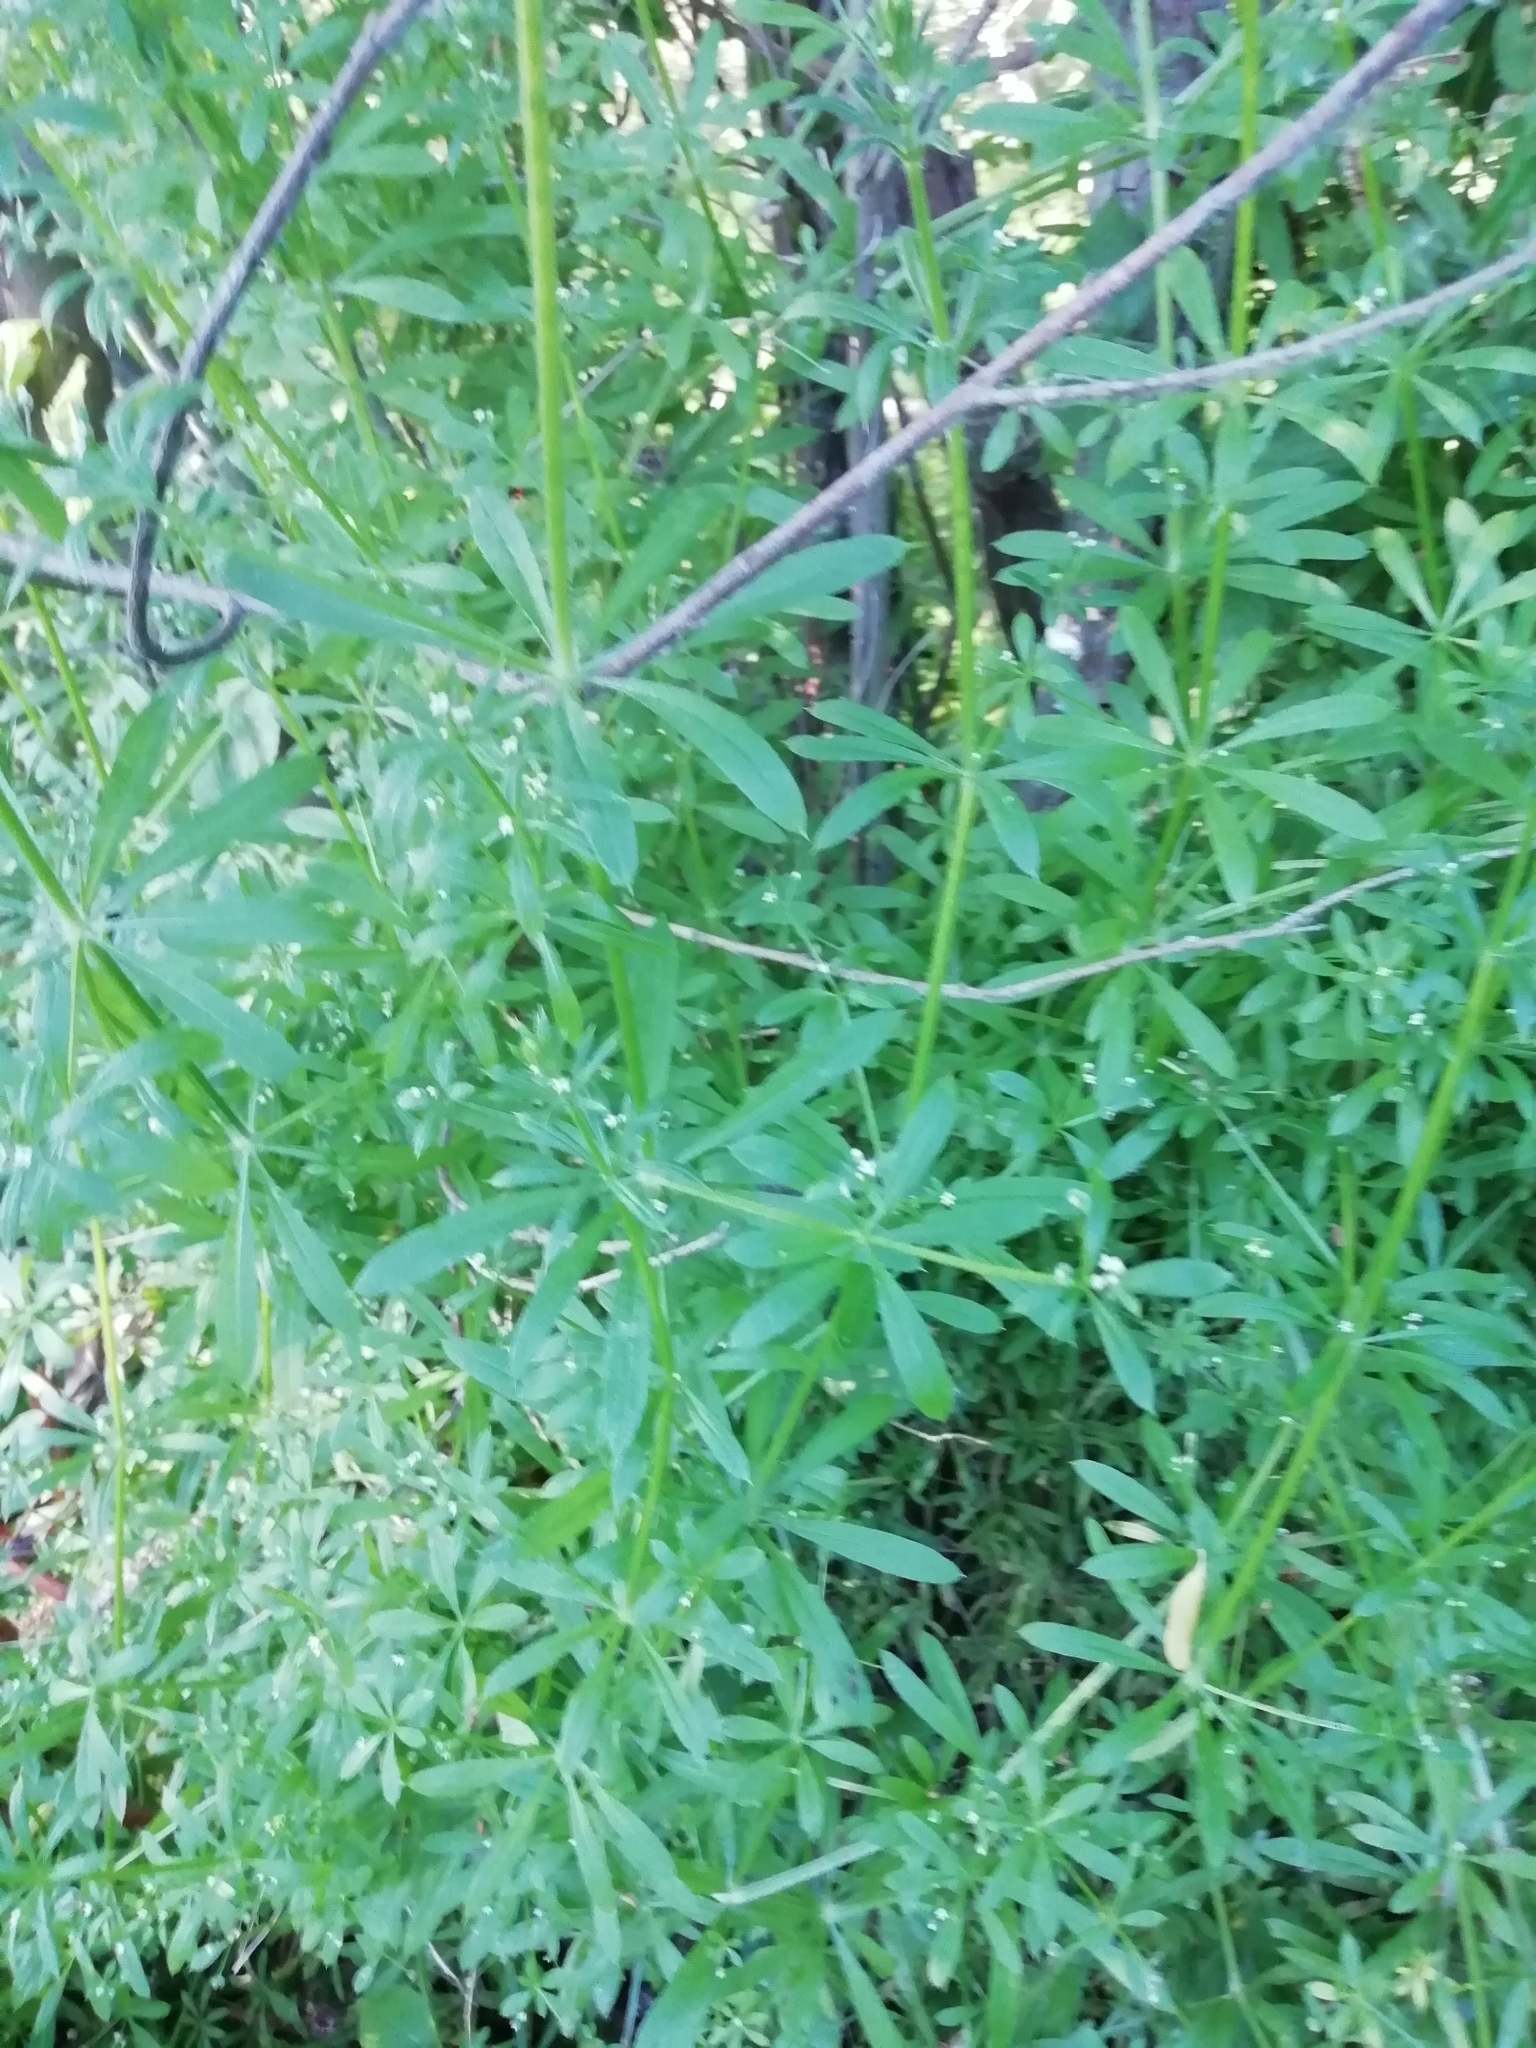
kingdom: Plantae
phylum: Tracheophyta
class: Magnoliopsida
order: Gentianales
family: Rubiaceae
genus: Galium
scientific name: Galium aparine
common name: Cleavers
